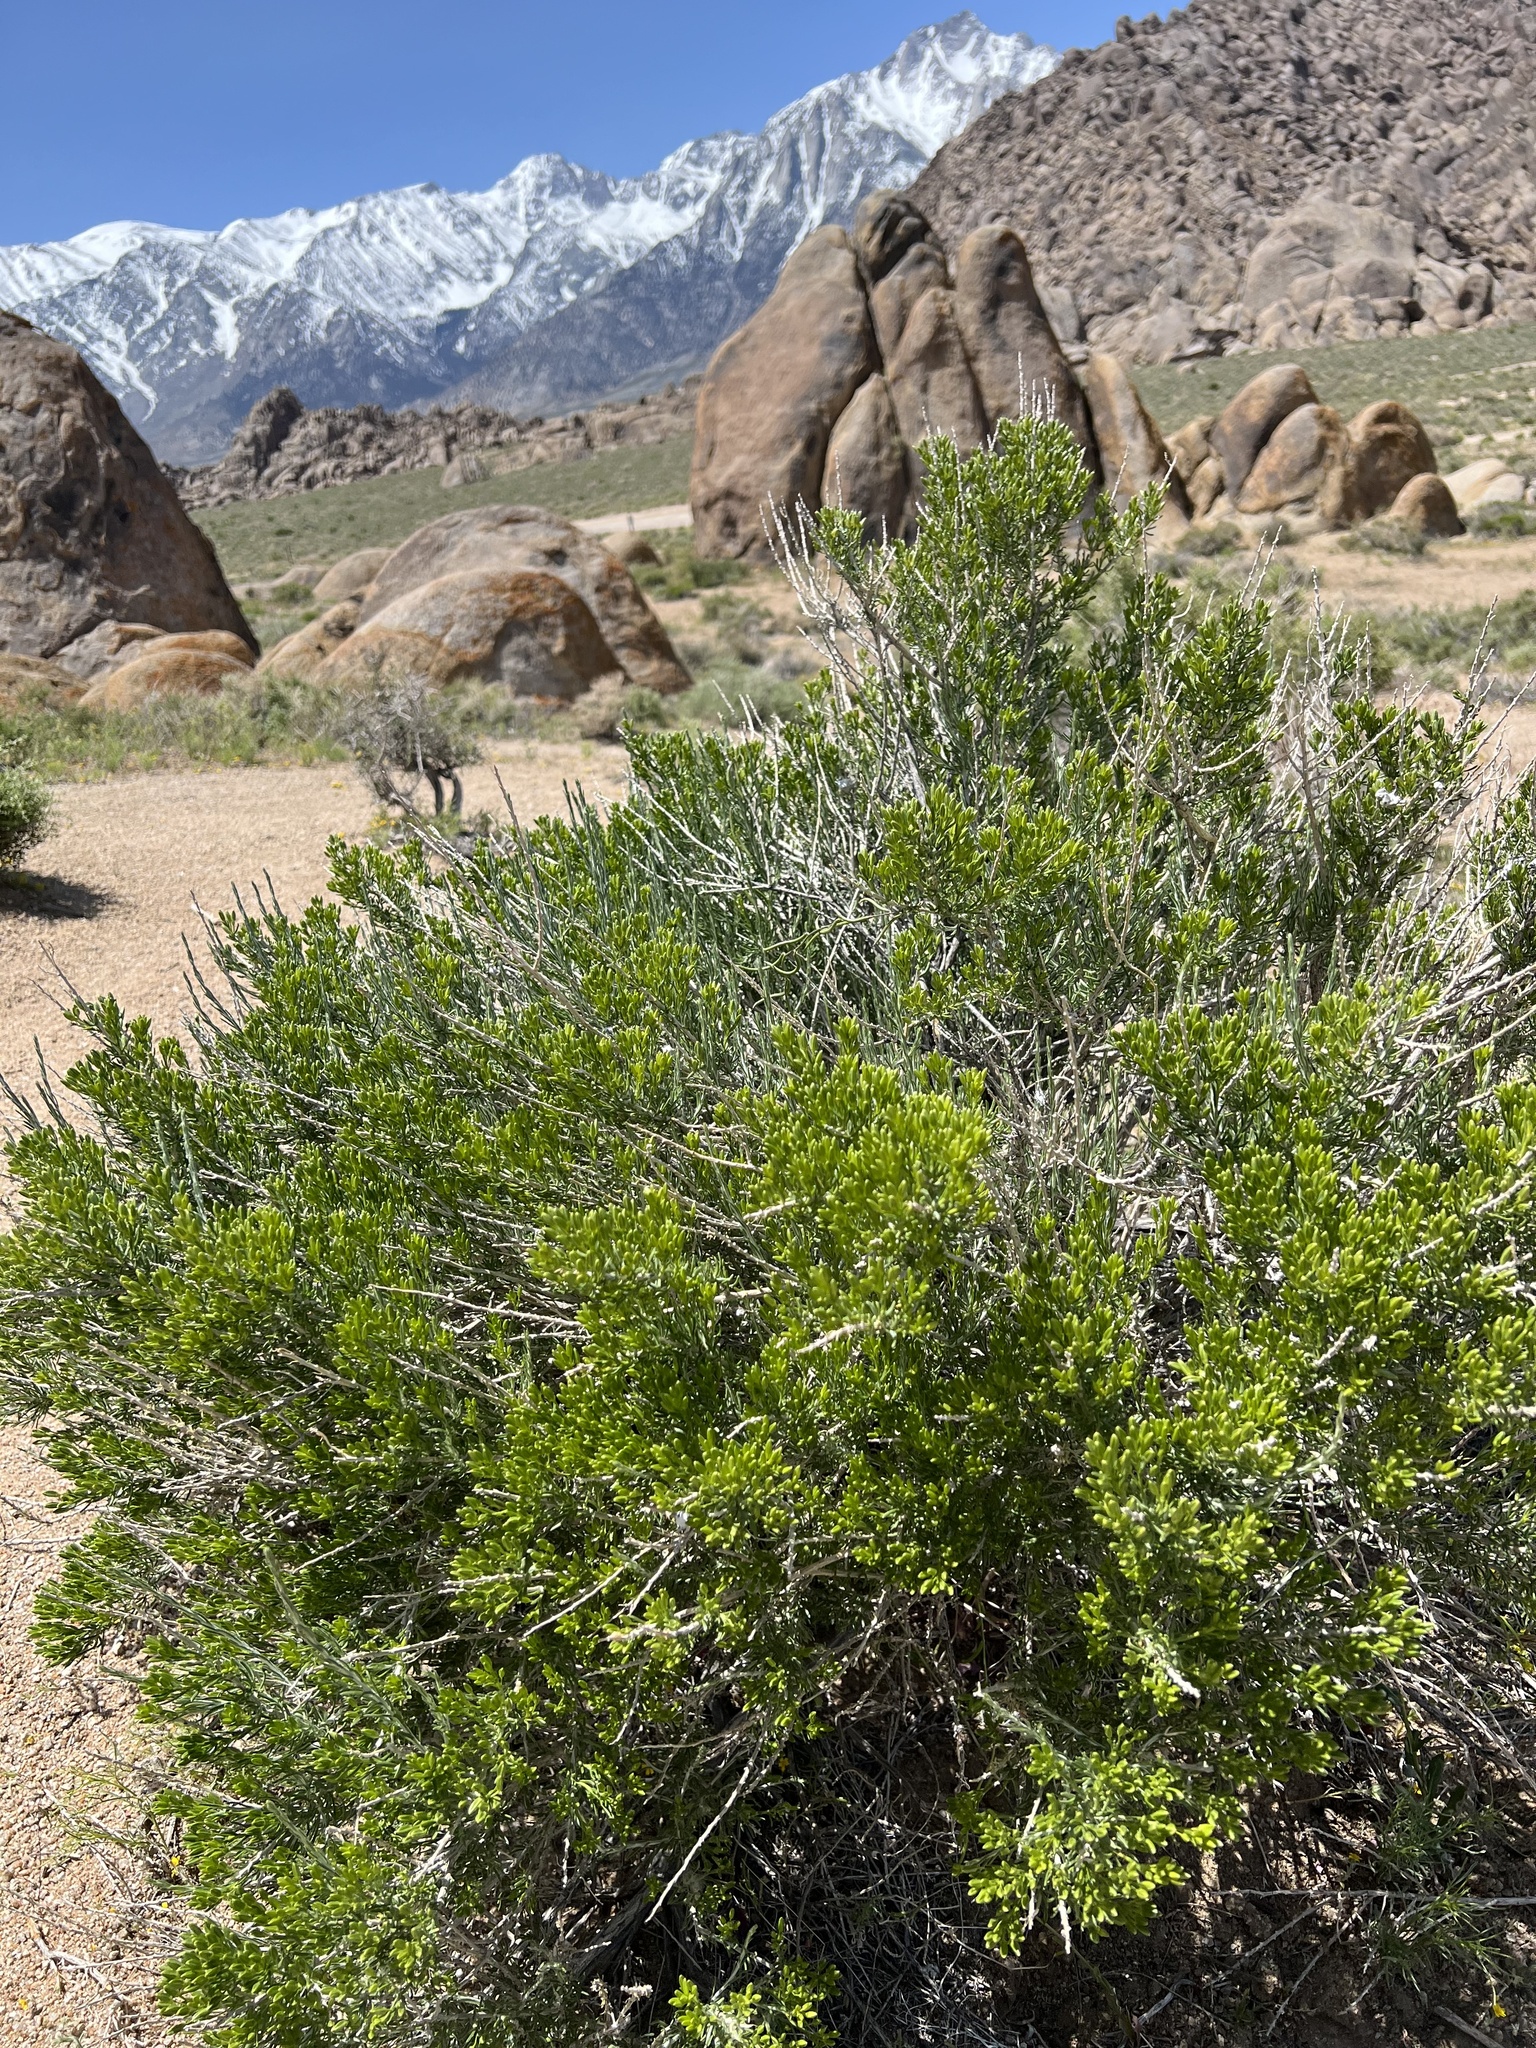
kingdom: Plantae
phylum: Tracheophyta
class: Magnoliopsida
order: Asterales
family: Asteraceae
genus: Tetradymia
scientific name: Tetradymia glabrata
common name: Smooth tetradymia
